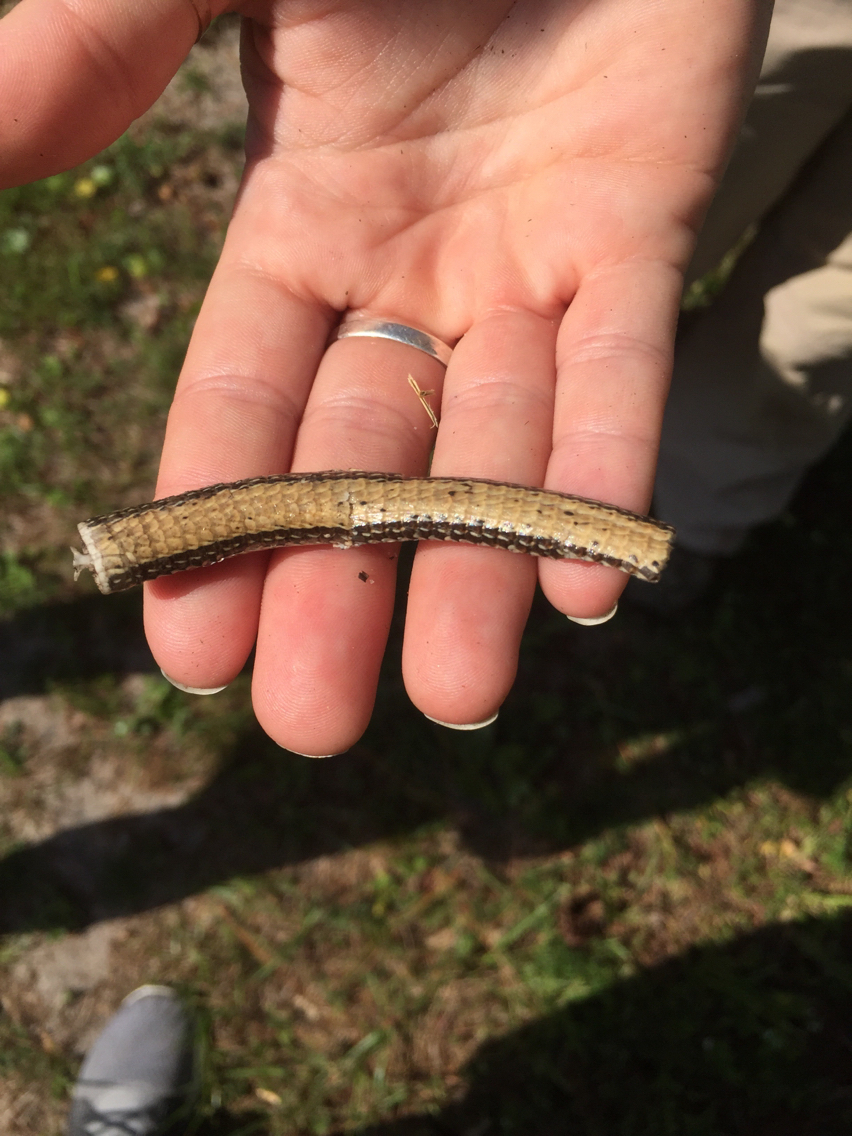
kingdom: Animalia
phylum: Chordata
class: Squamata
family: Anguidae
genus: Ophisaurus
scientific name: Ophisaurus
